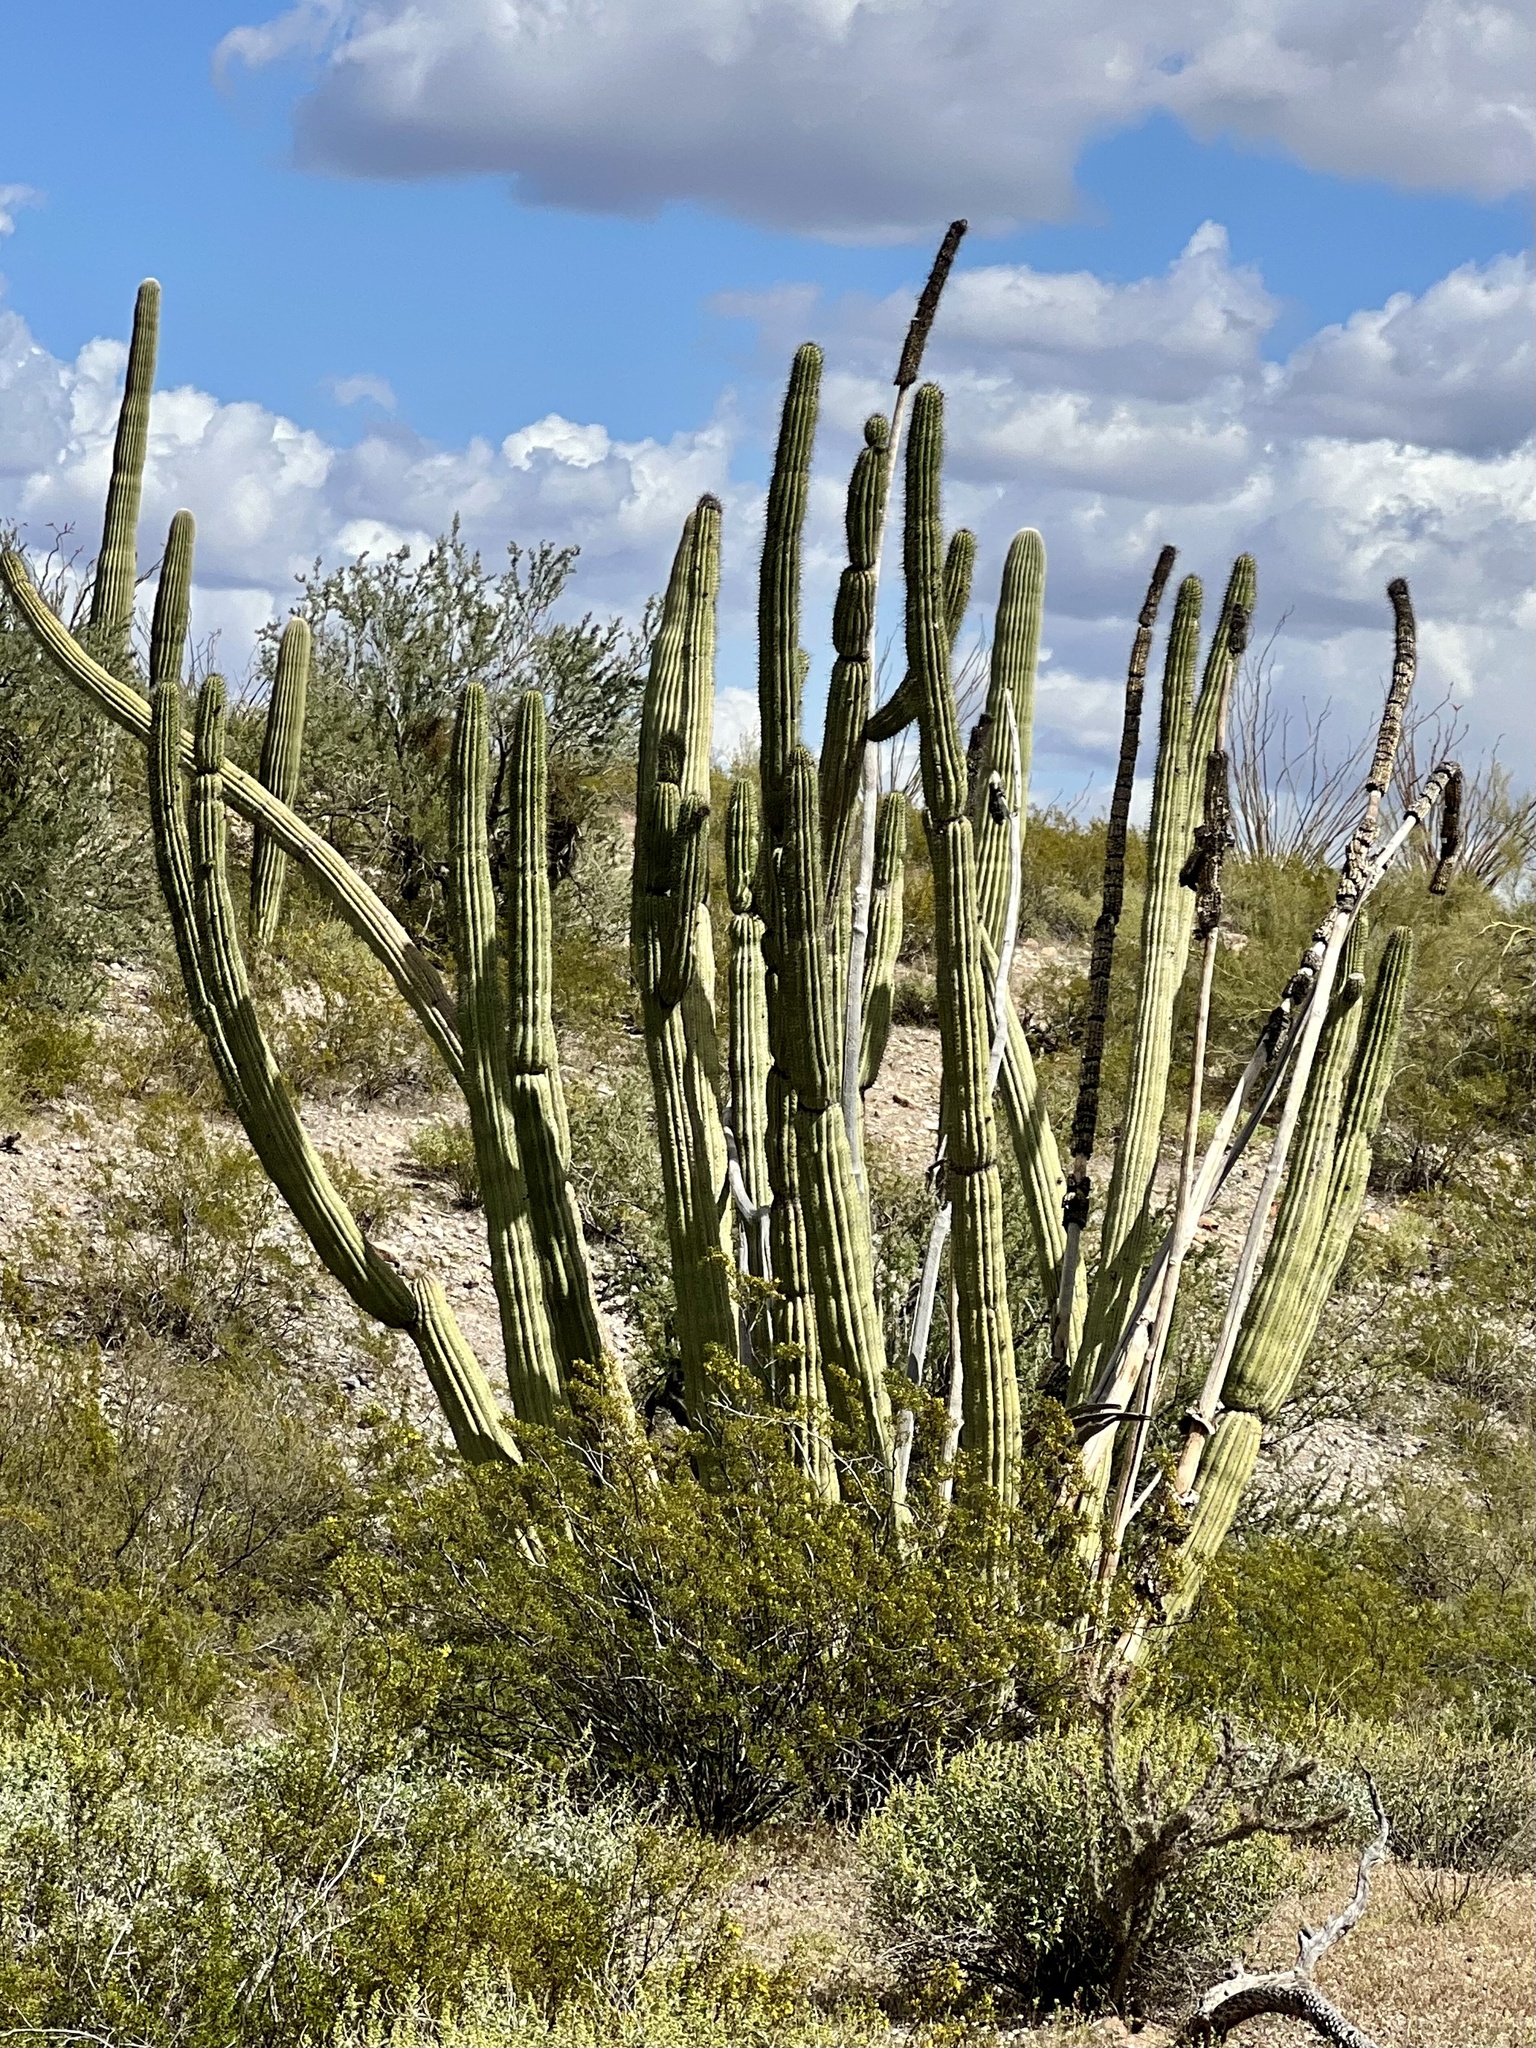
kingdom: Plantae
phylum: Tracheophyta
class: Magnoliopsida
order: Caryophyllales
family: Cactaceae
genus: Stenocereus
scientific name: Stenocereus thurberi
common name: Organ pipe cactus
